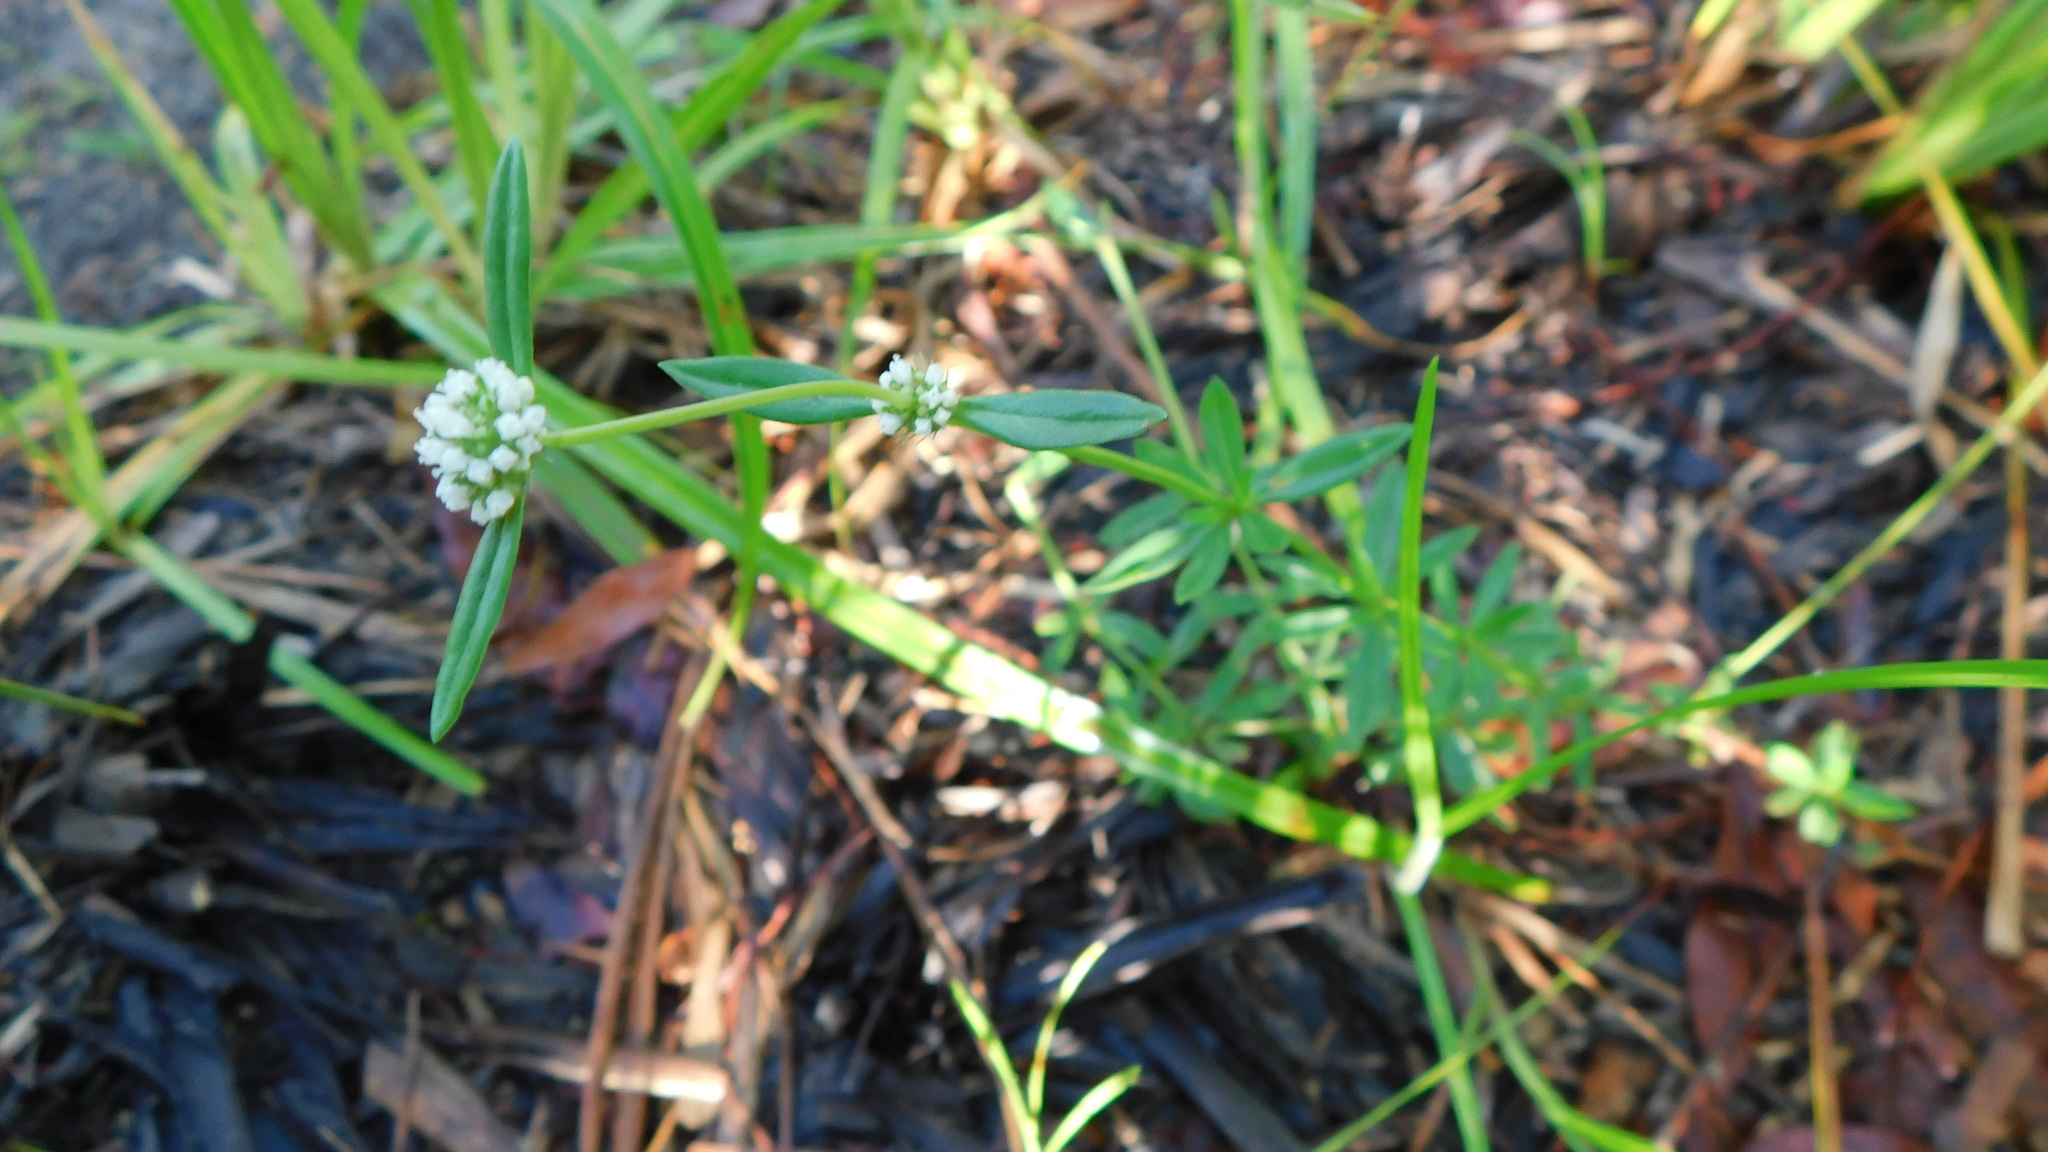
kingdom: Plantae
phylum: Tracheophyta
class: Magnoliopsida
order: Gentianales
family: Rubiaceae
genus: Spermacoce
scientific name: Spermacoce verticillata
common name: Shrubby false buttonweed
